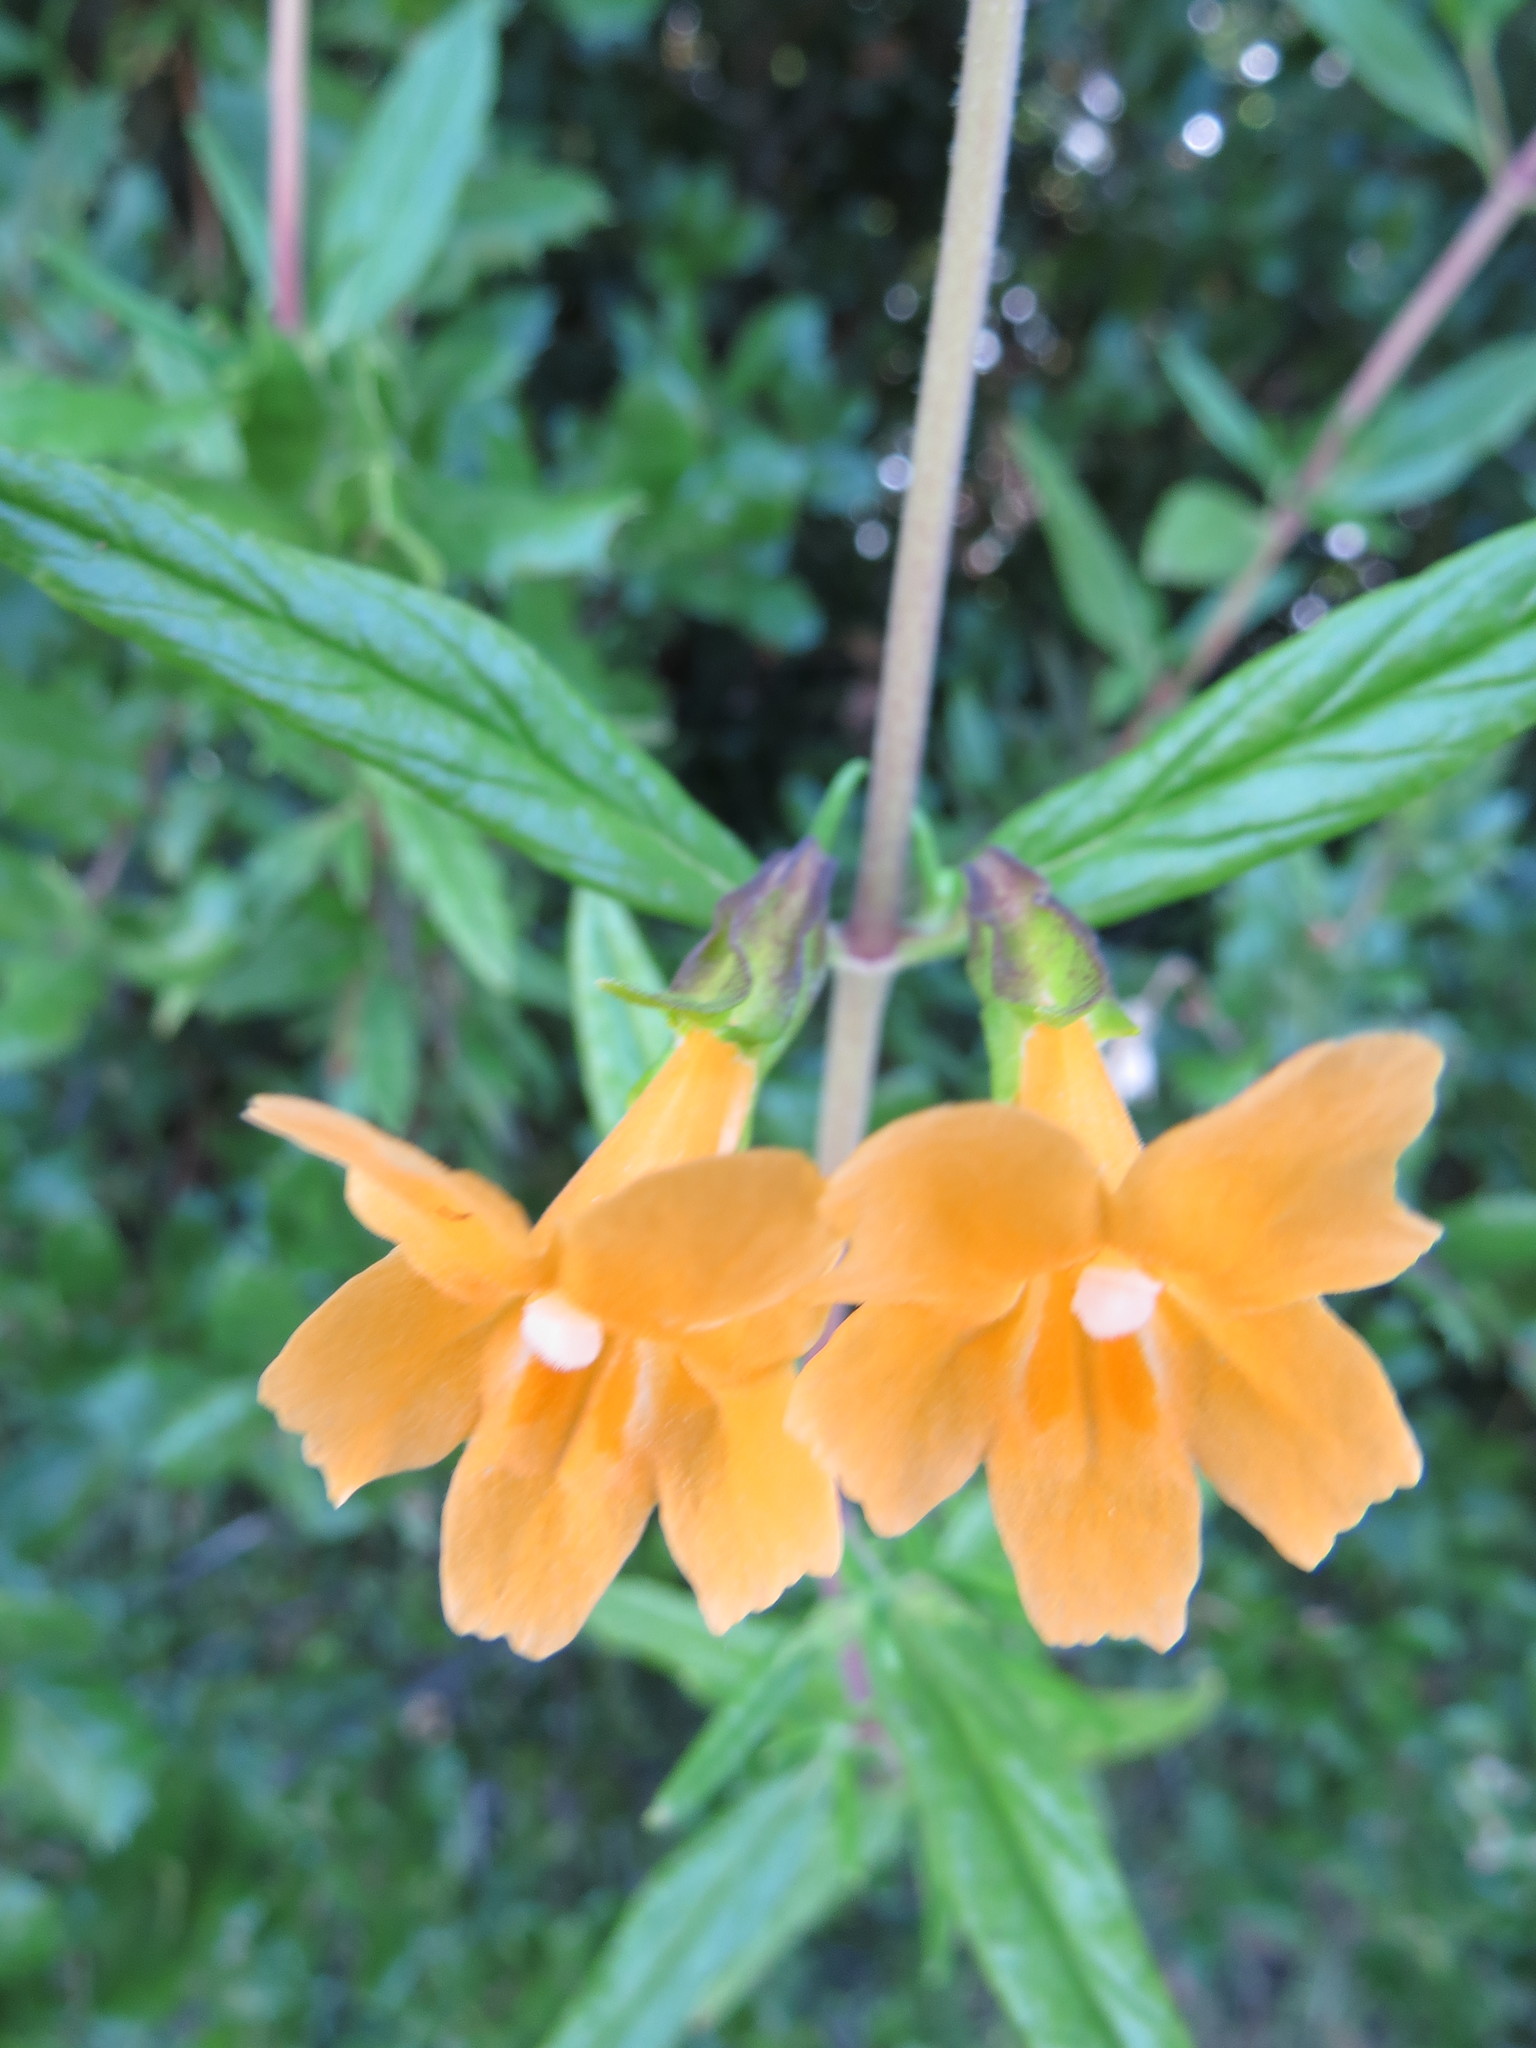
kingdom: Plantae
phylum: Tracheophyta
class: Magnoliopsida
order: Lamiales
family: Phrymaceae
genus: Diplacus
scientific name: Diplacus aurantiacus
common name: Bush monkey-flower
